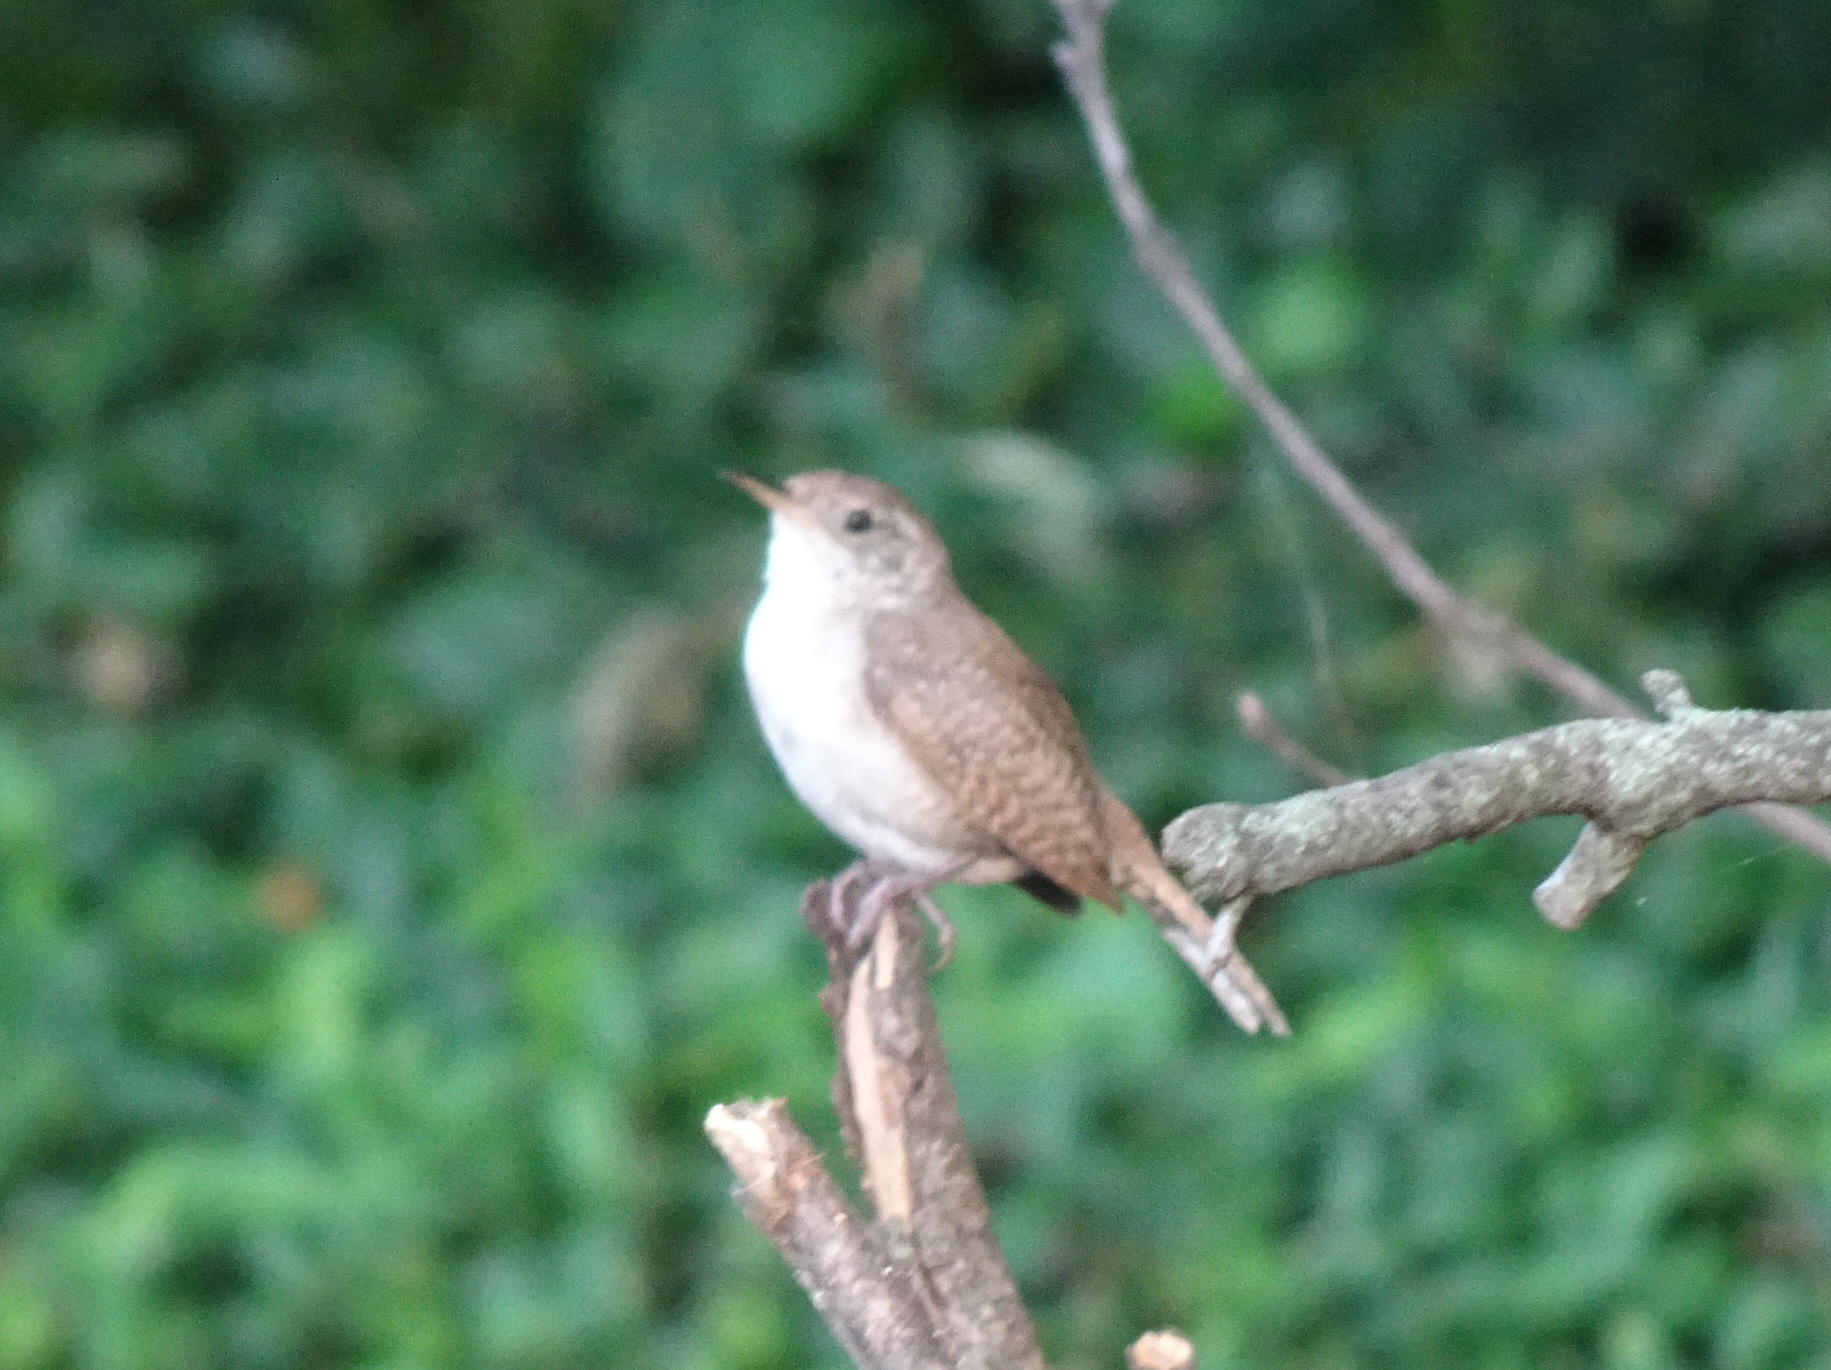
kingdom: Animalia
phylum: Chordata
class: Aves
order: Passeriformes
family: Troglodytidae
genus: Troglodytes
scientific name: Troglodytes aedon
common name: House wren
